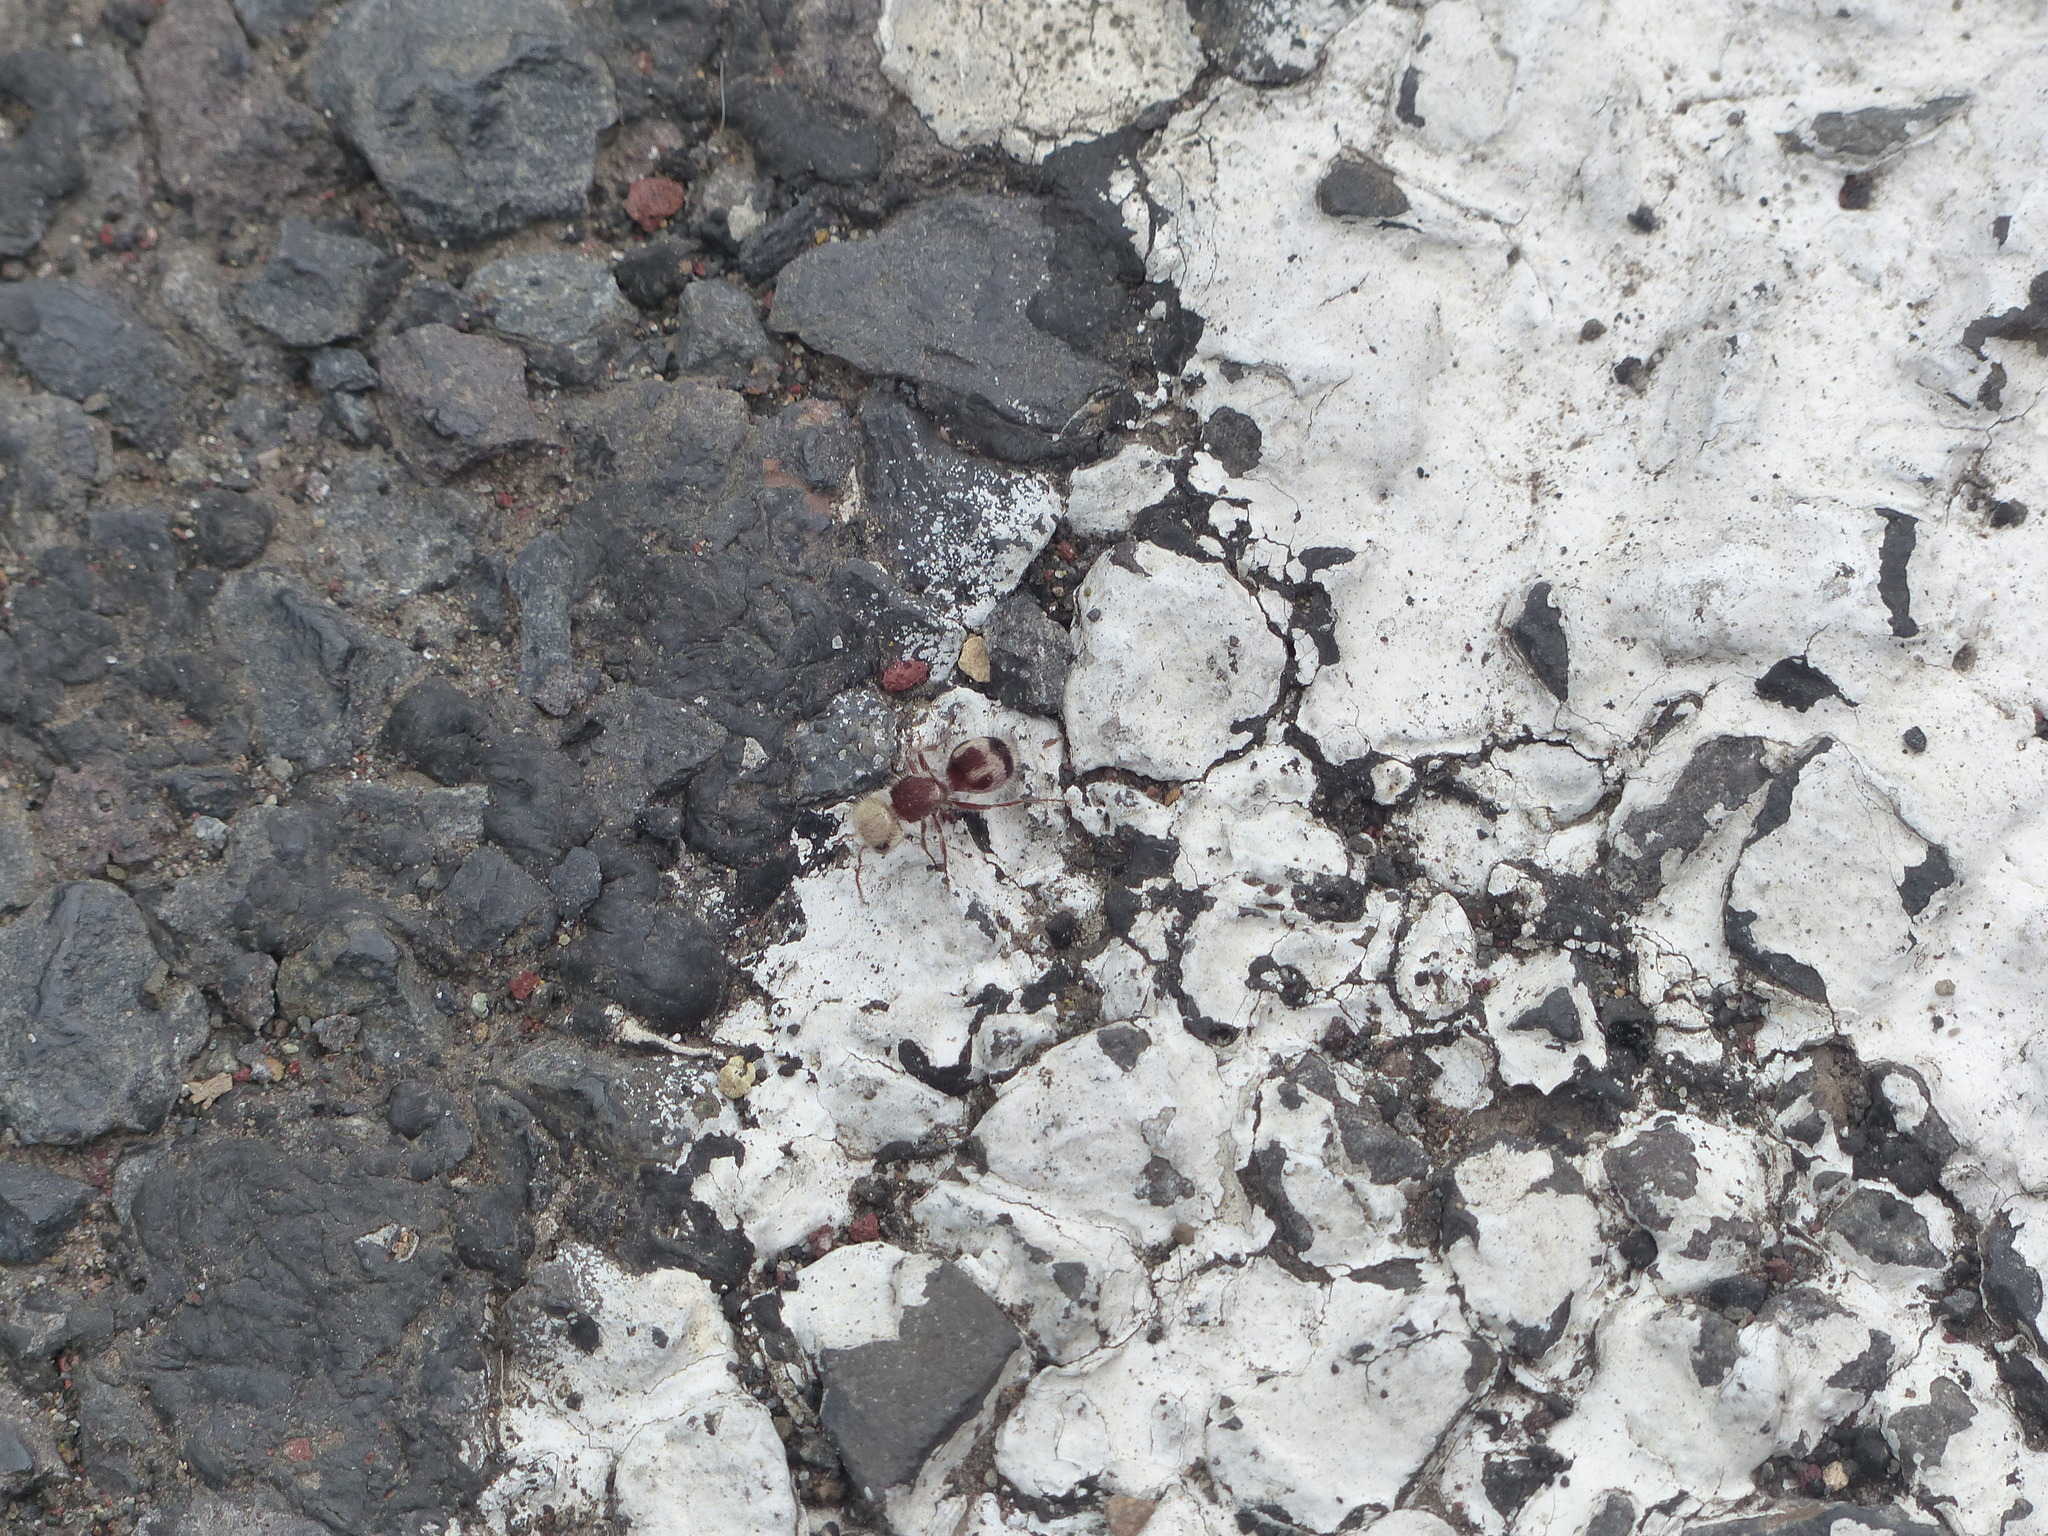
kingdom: Animalia
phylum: Arthropoda
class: Insecta
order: Hymenoptera
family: Mutillidae
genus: Pseudomethoca
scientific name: Pseudomethoca contumax
